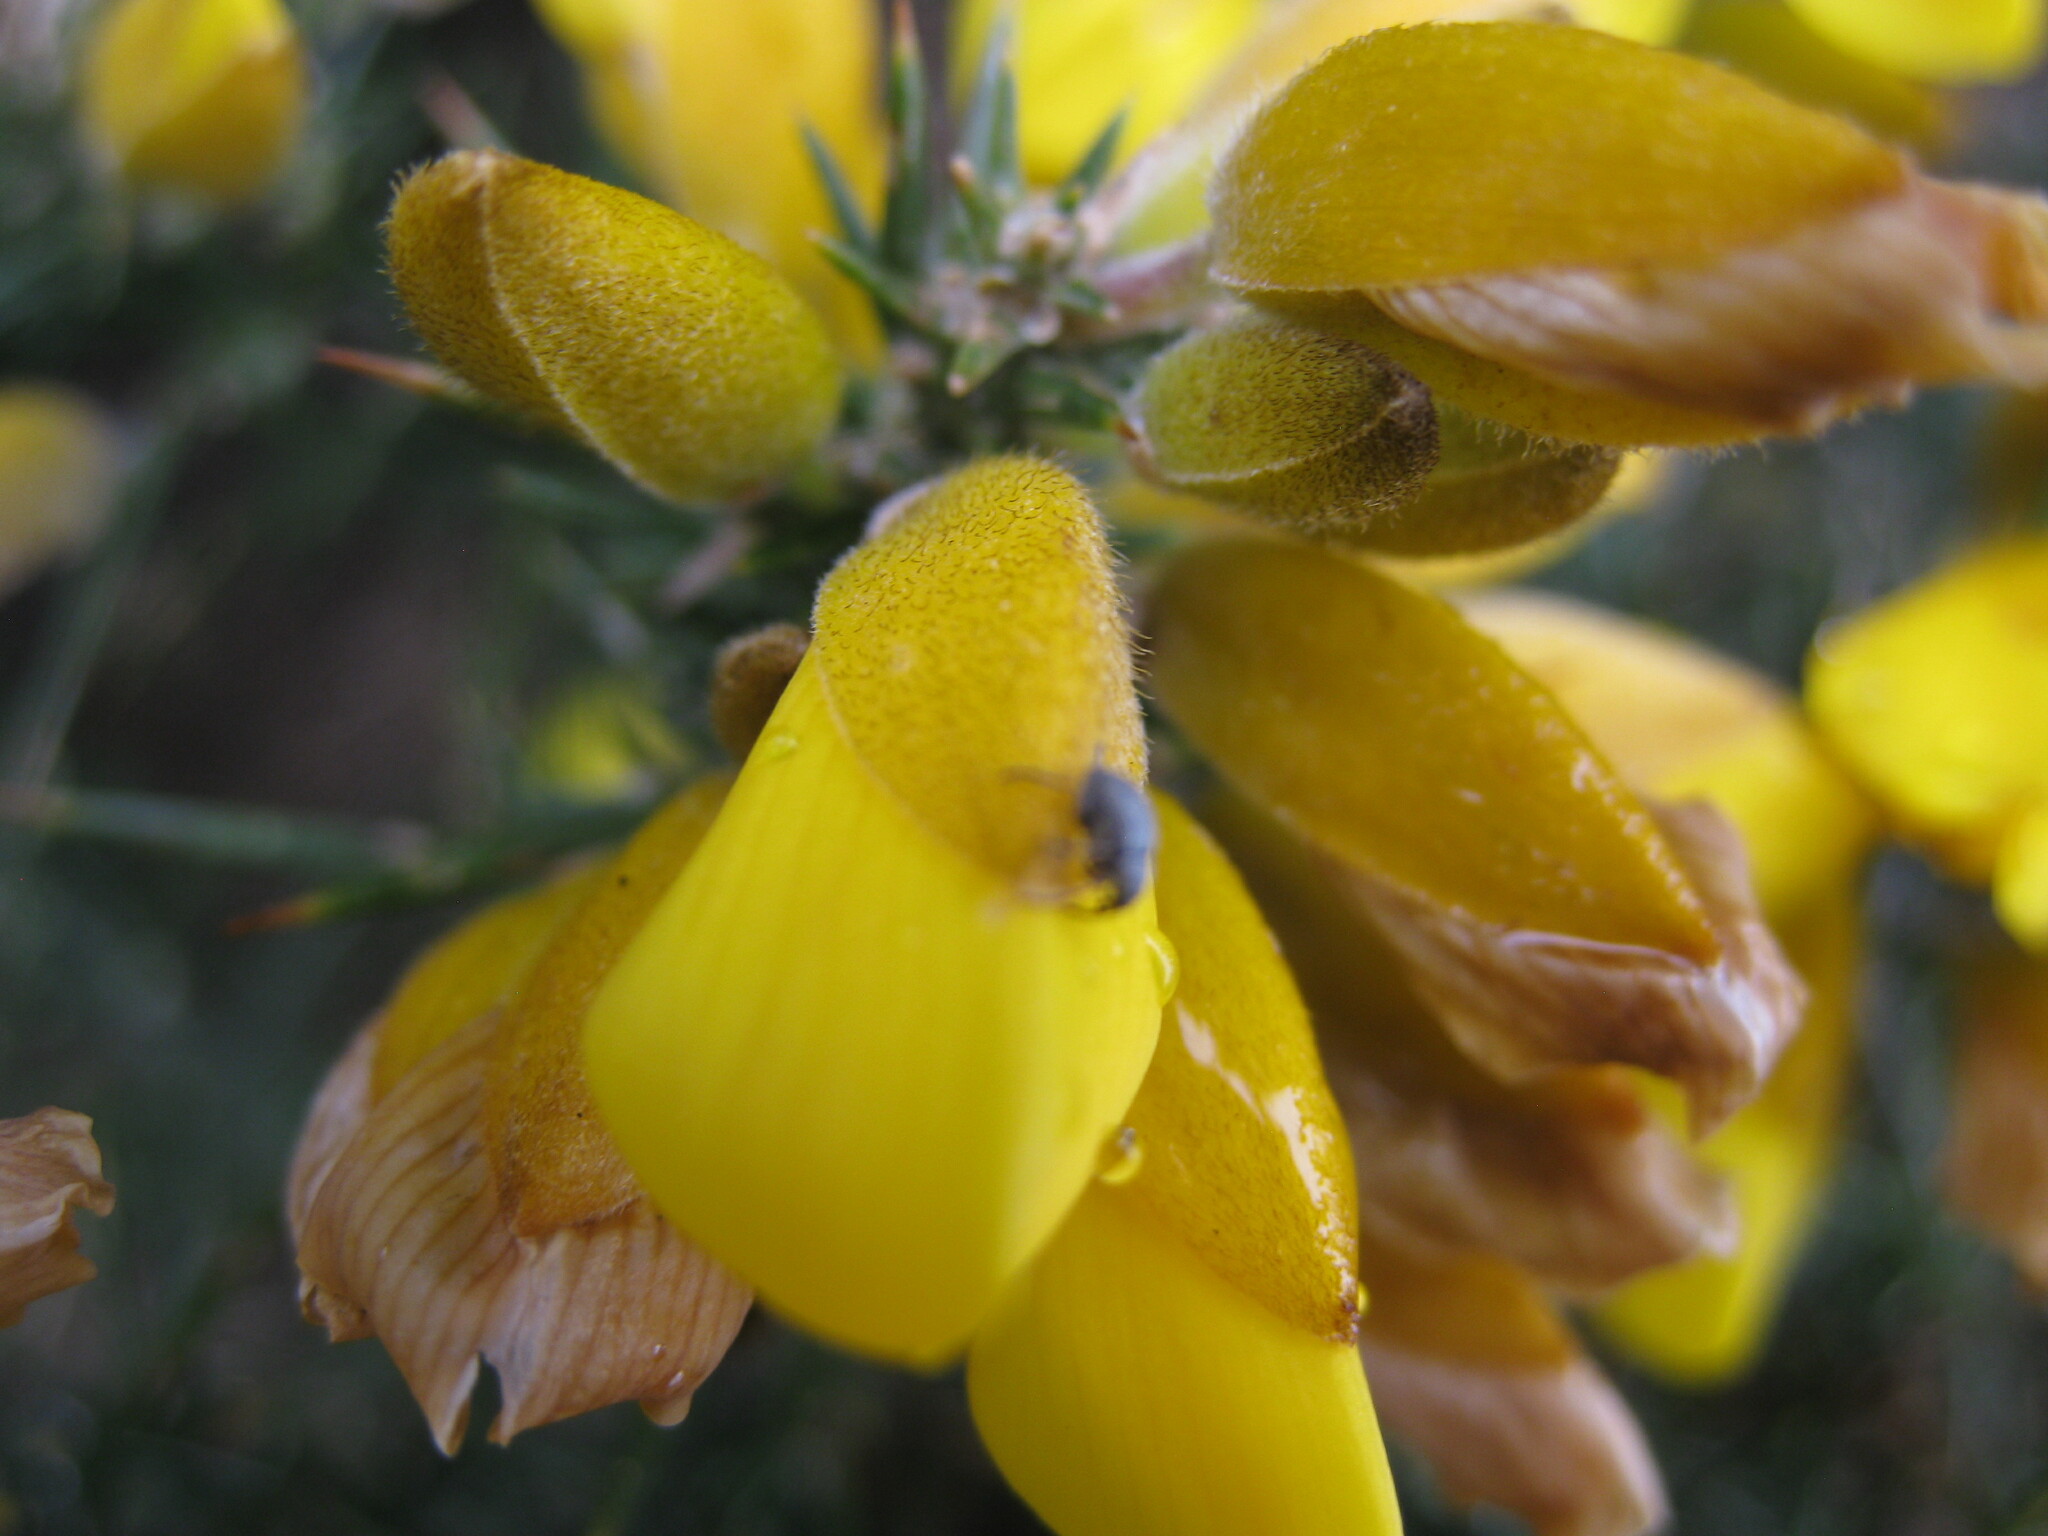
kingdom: Animalia
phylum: Arthropoda
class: Insecta
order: Coleoptera
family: Brentidae
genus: Exapion
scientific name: Exapion ulicis
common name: Gorse seed weevil
